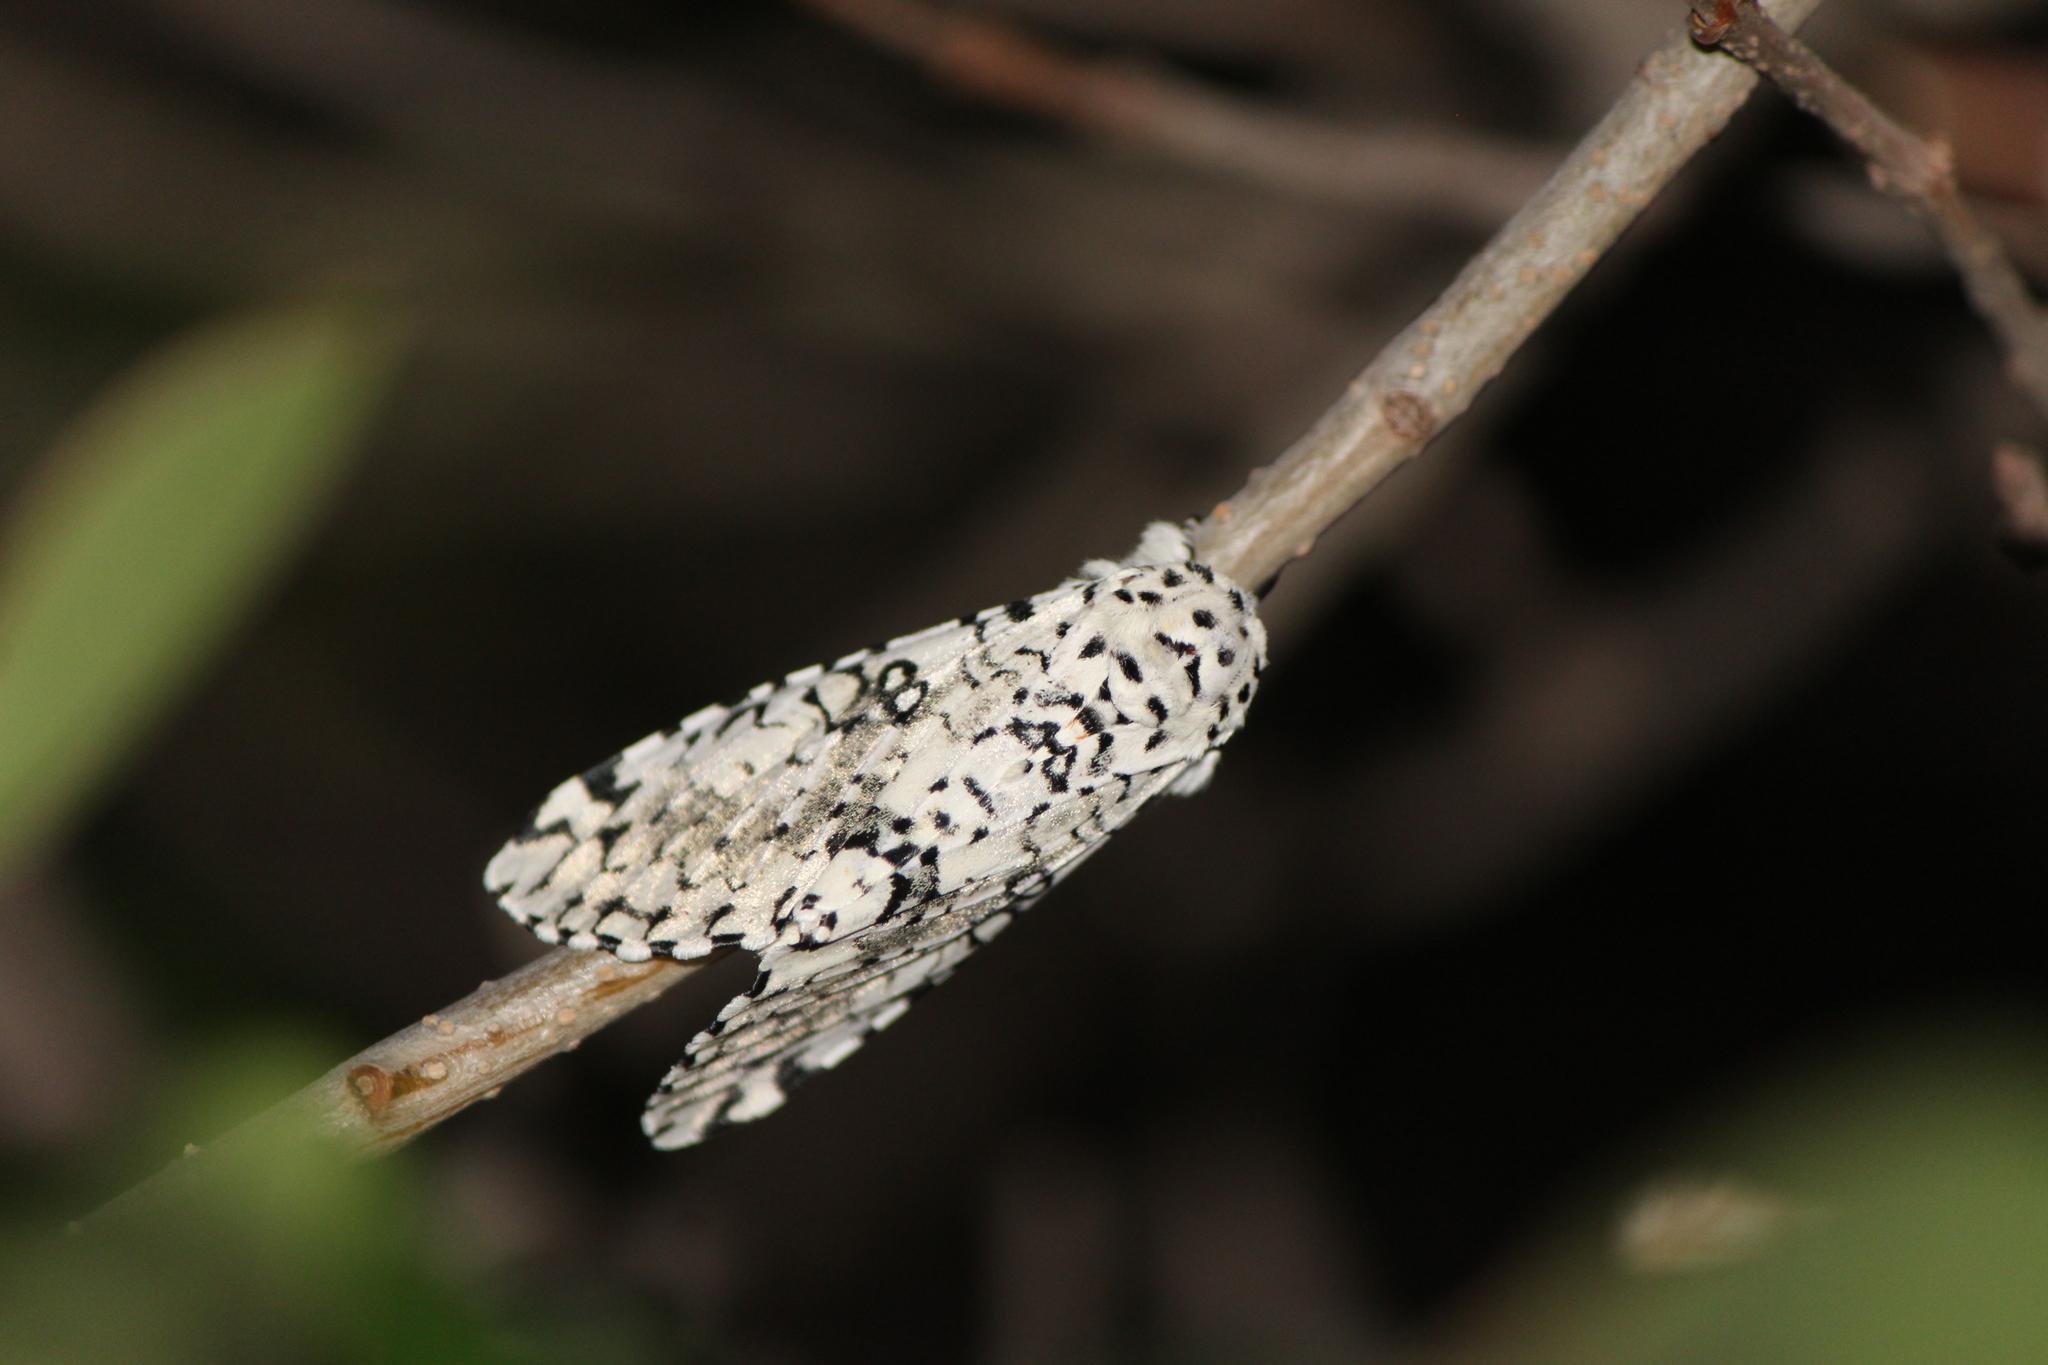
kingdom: Animalia
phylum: Arthropoda
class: Insecta
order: Lepidoptera
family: Noctuidae
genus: Lichnoptera
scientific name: Lichnoptera decora
